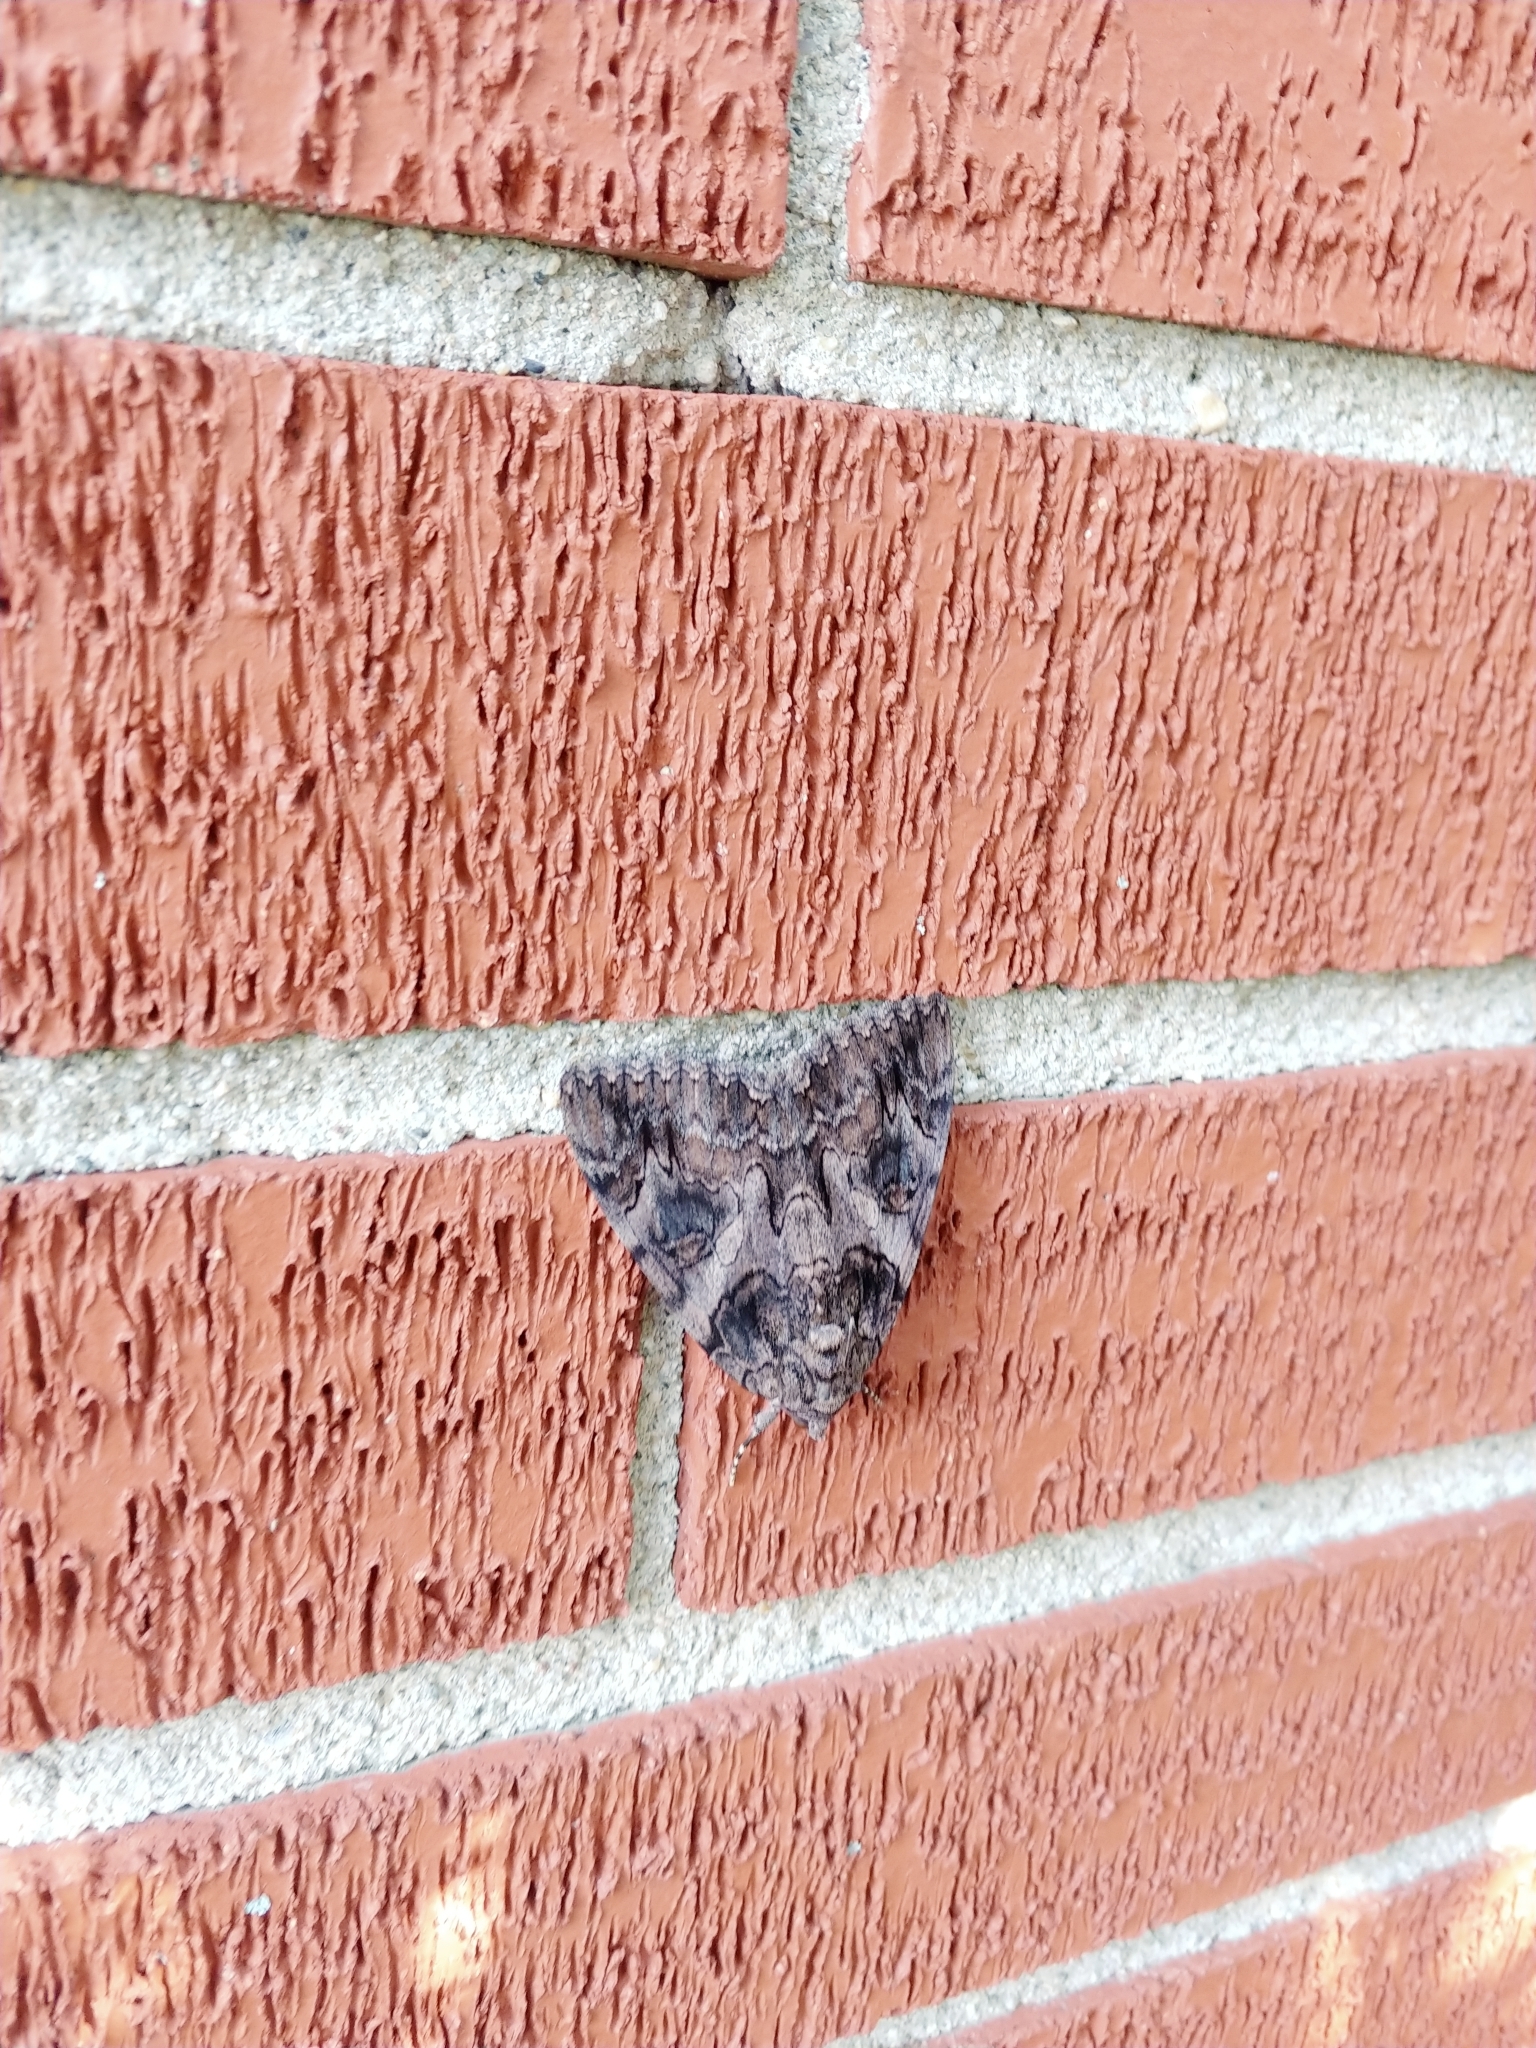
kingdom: Animalia
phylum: Arthropoda
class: Insecta
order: Lepidoptera
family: Erebidae
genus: Catocala
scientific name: Catocala piatrix
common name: The penitent underwing
